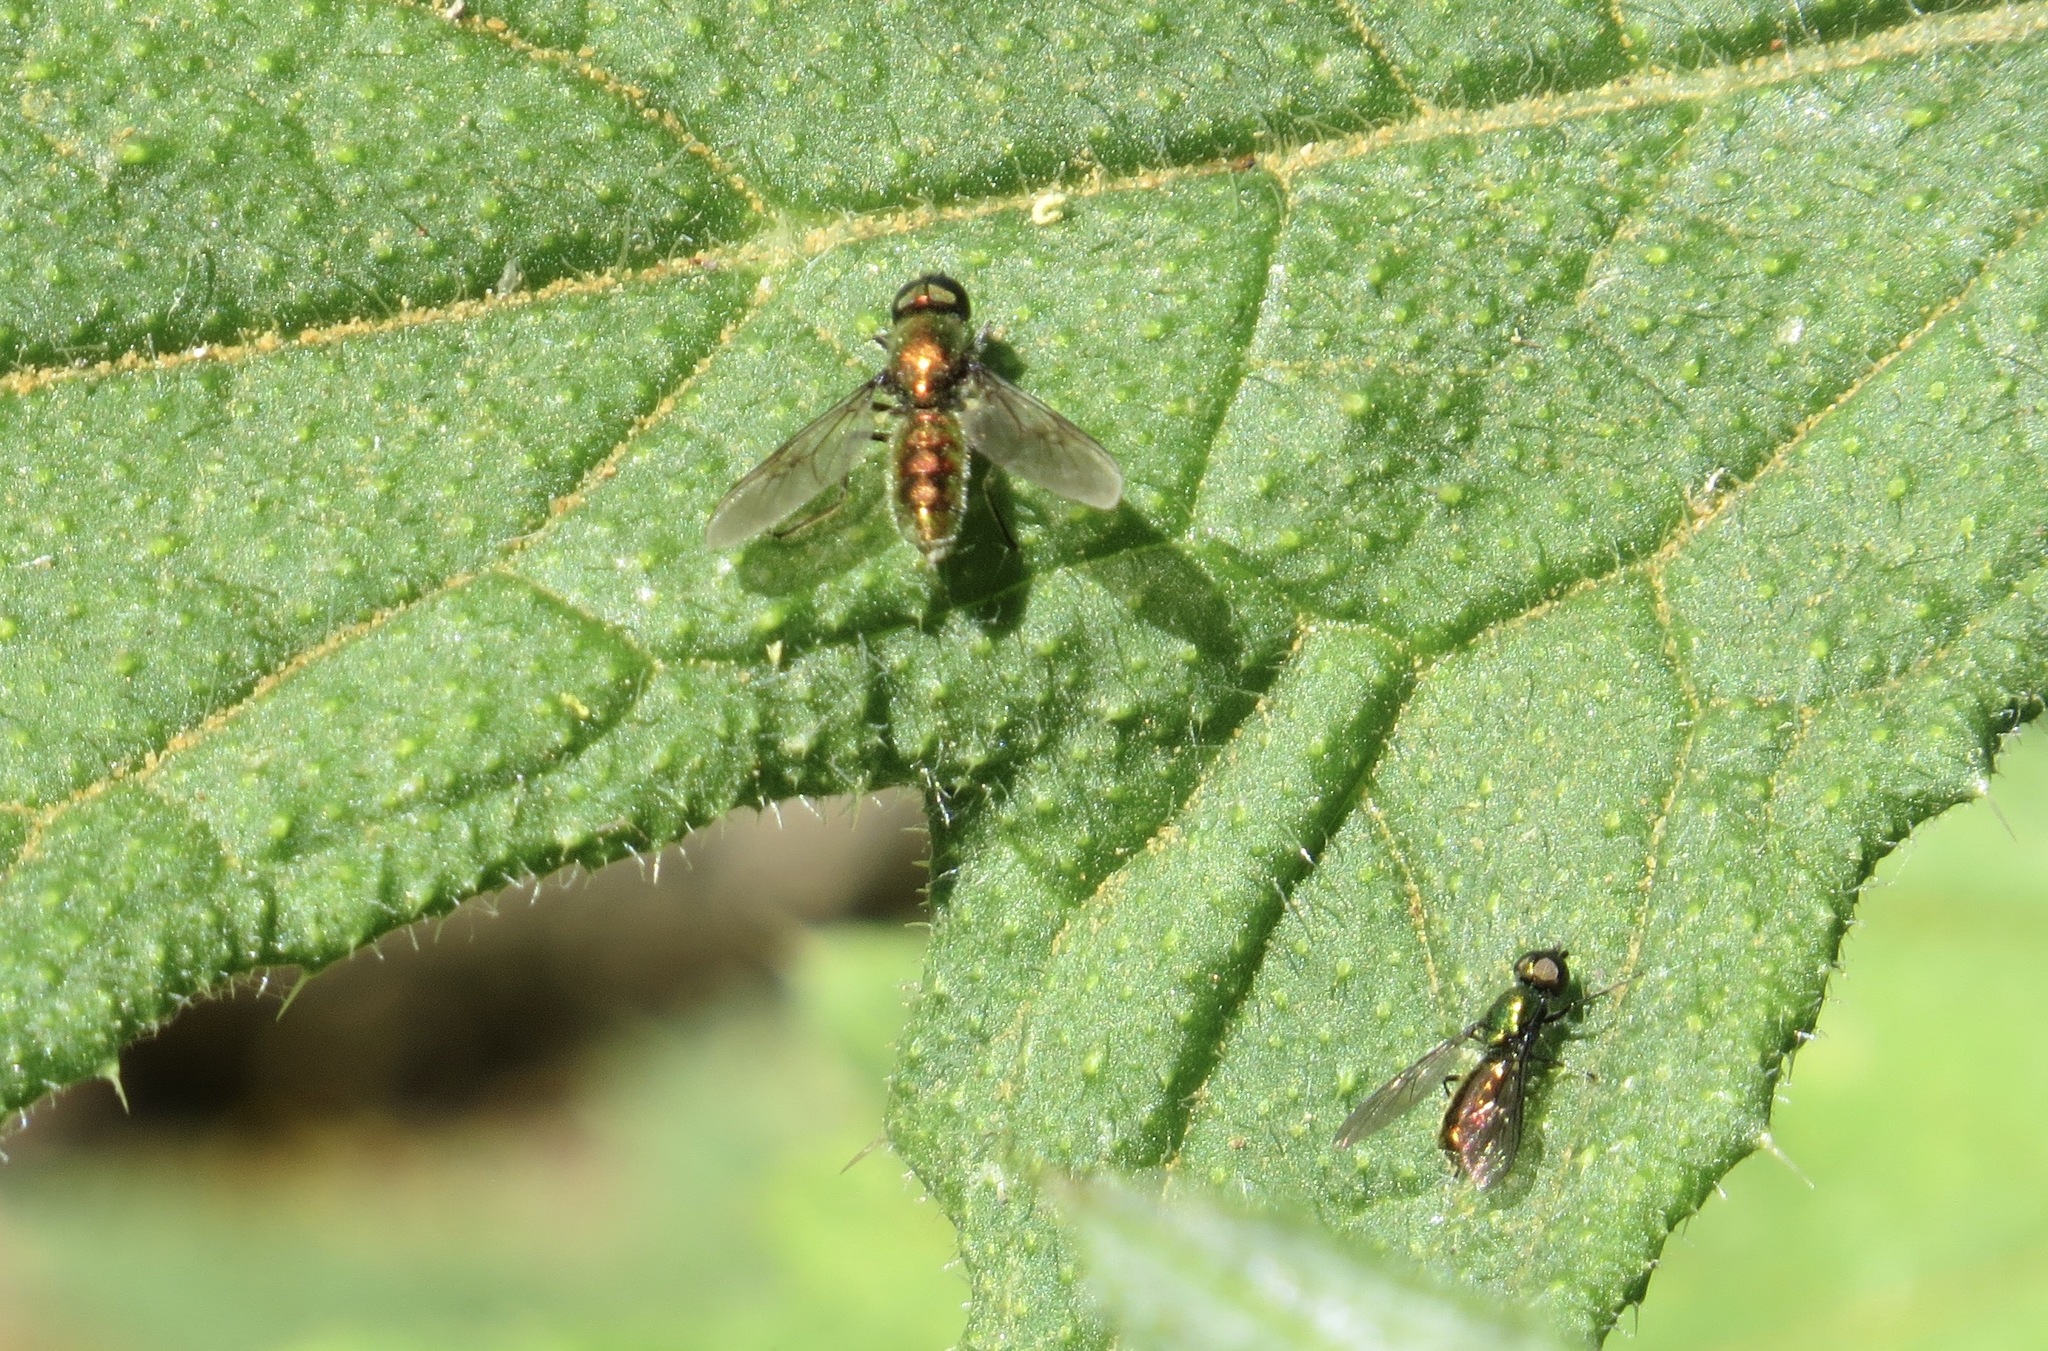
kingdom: Animalia
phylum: Arthropoda
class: Insecta
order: Diptera
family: Stratiomyidae
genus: Sargus
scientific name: Sargus viridis
